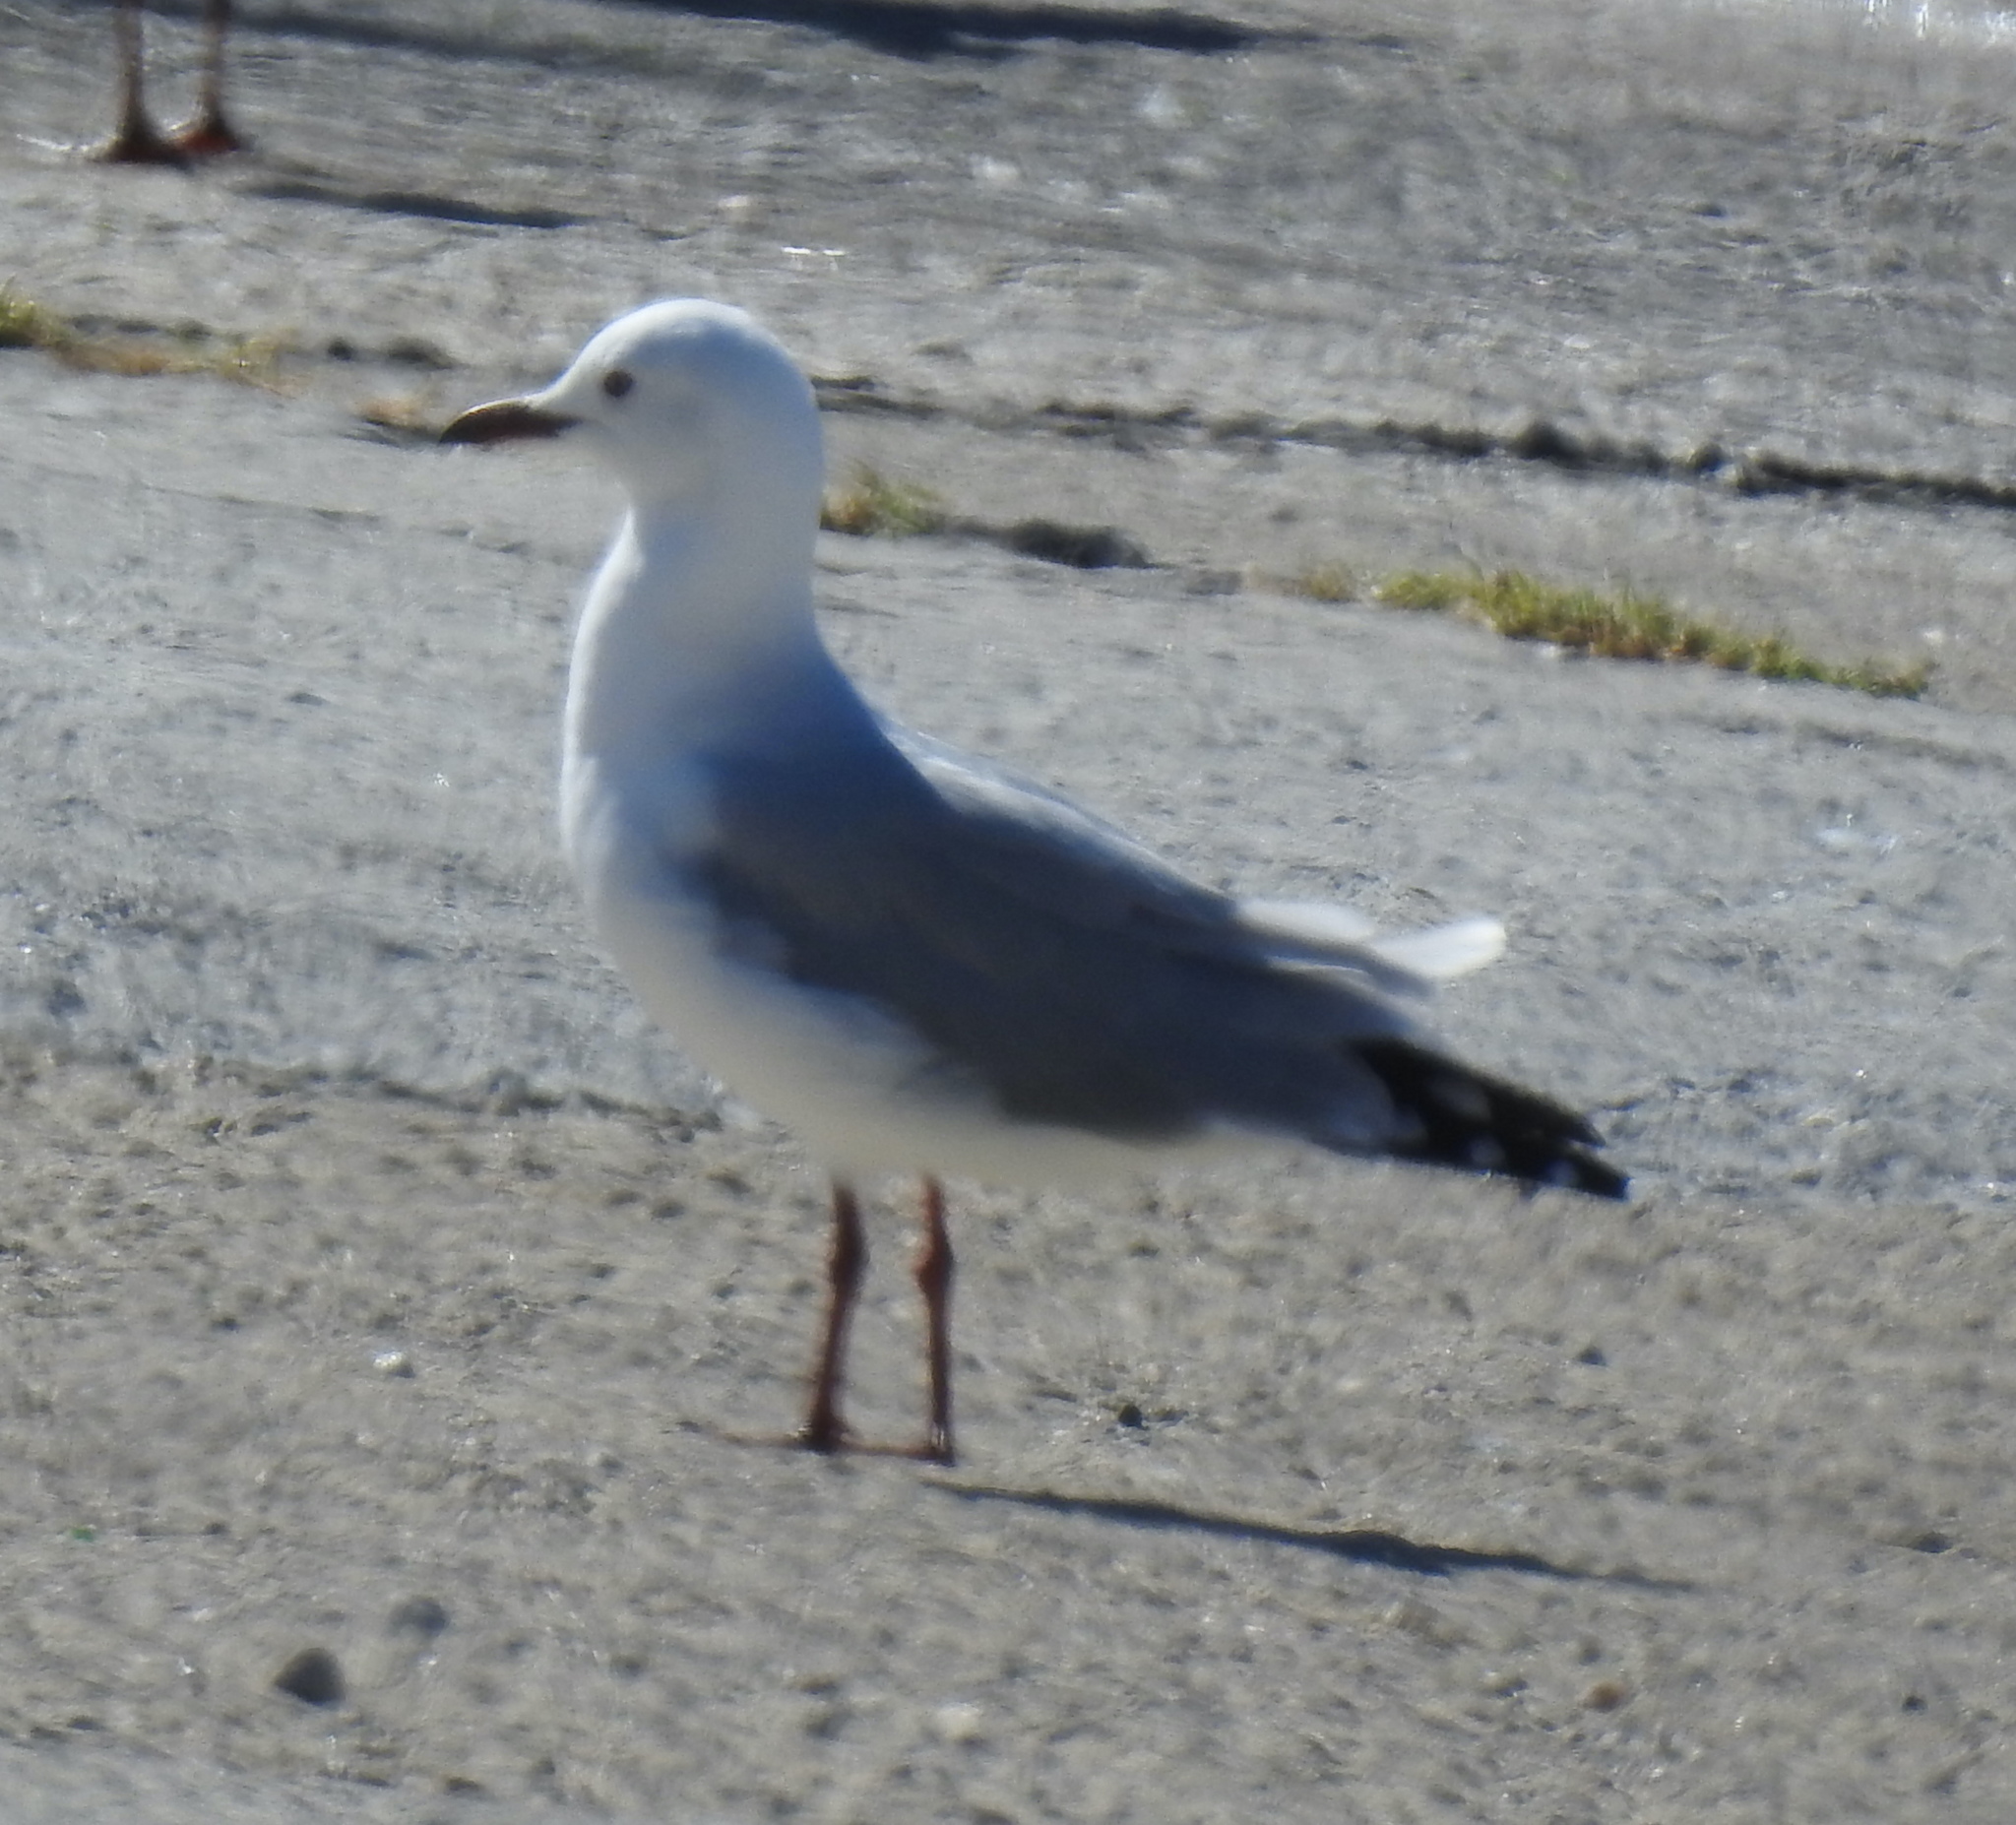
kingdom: Animalia
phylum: Chordata
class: Aves
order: Charadriiformes
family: Laridae
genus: Chroicocephalus
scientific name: Chroicocephalus hartlaubii
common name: Hartlaub's gull
